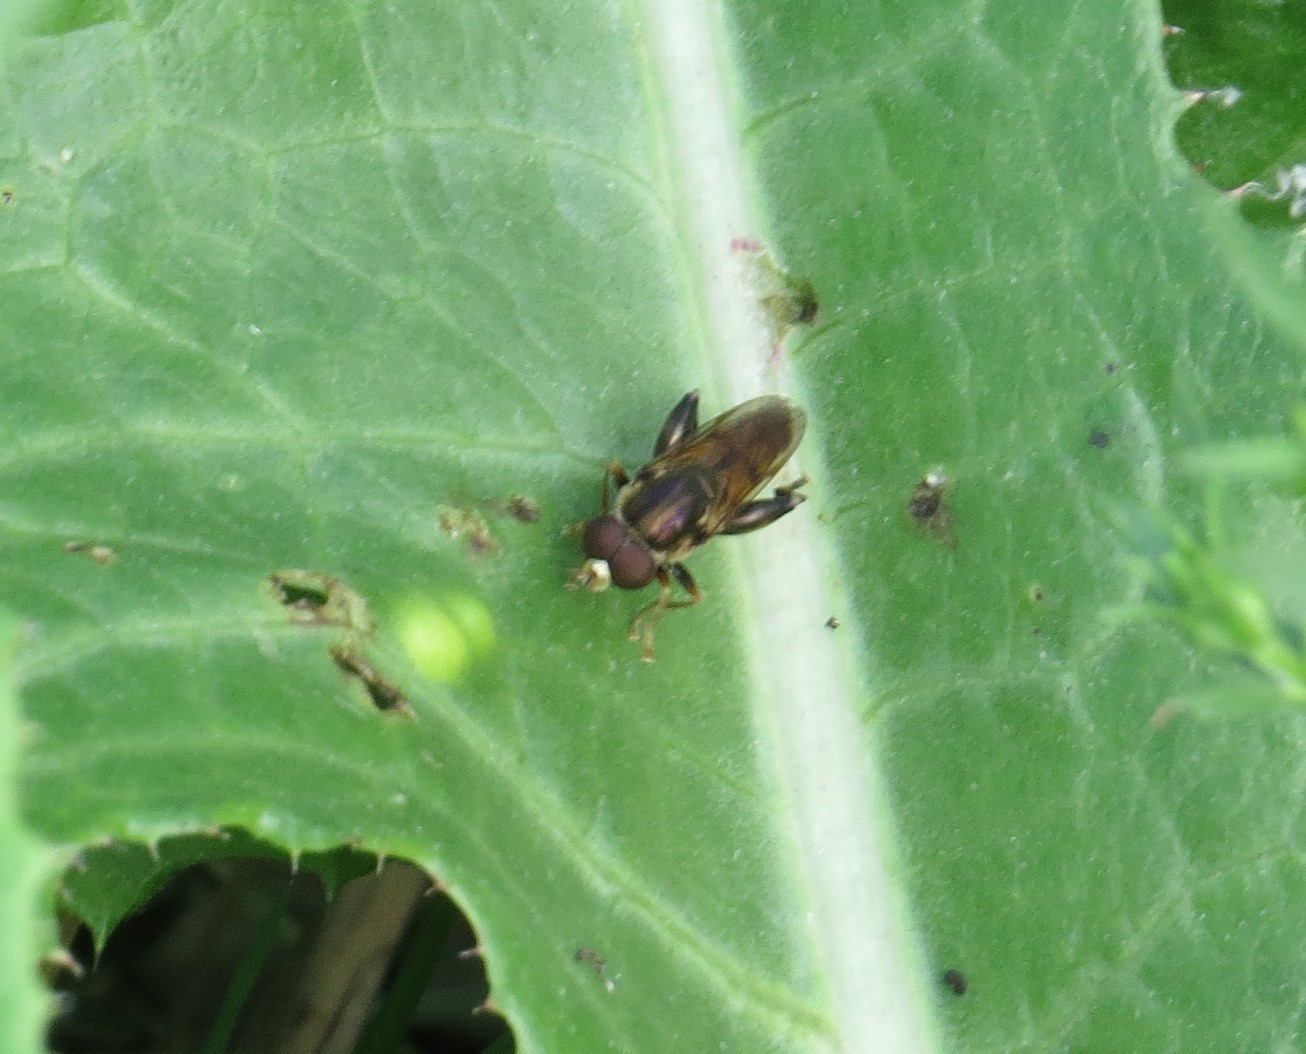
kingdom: Animalia
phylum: Arthropoda
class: Insecta
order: Diptera
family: Syrphidae
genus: Tropidia
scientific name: Tropidia quadrata
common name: Common thick-legged fly
